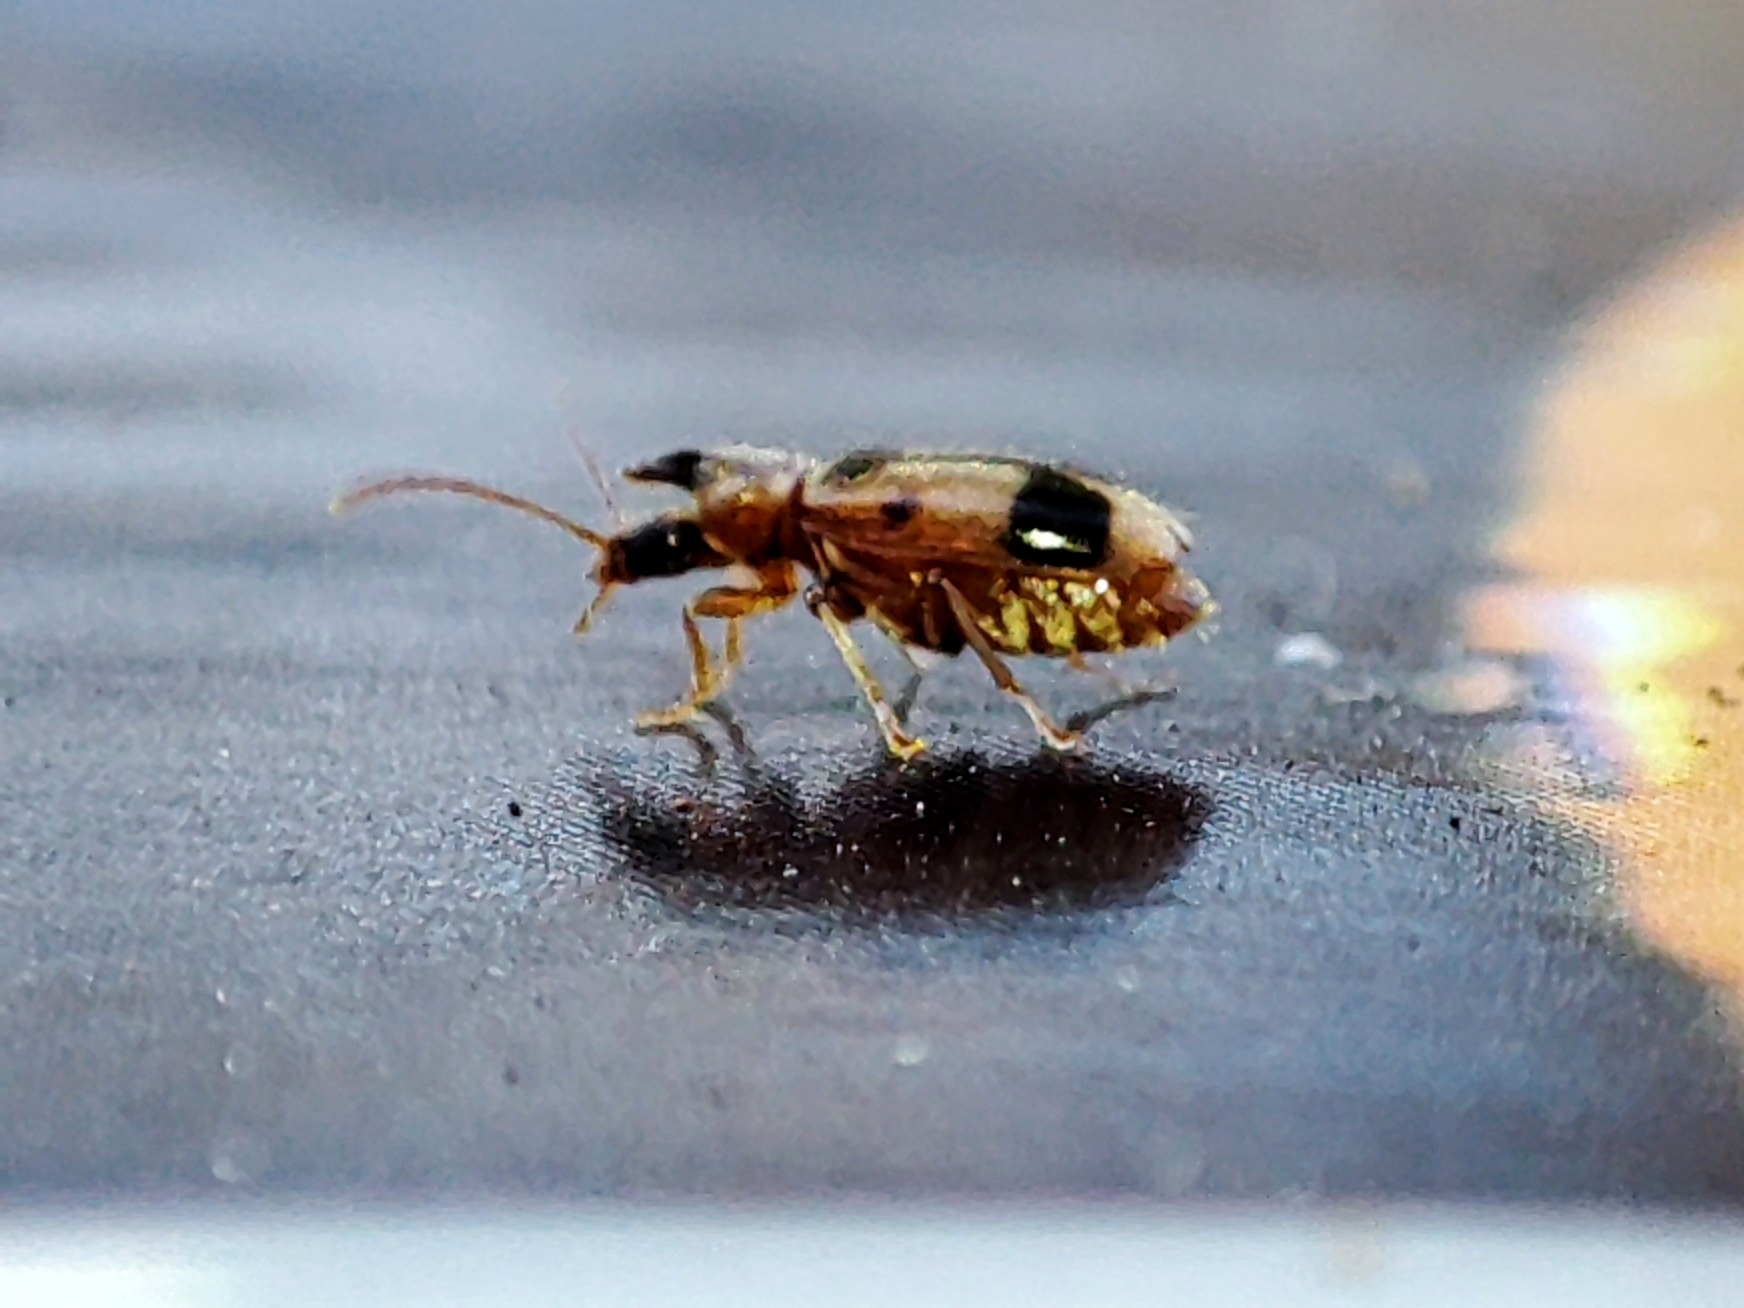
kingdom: Animalia
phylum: Arthropoda
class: Insecta
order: Coleoptera
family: Anthicidae
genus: Notoxus
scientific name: Notoxus monoceros
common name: Monoceros beetle
